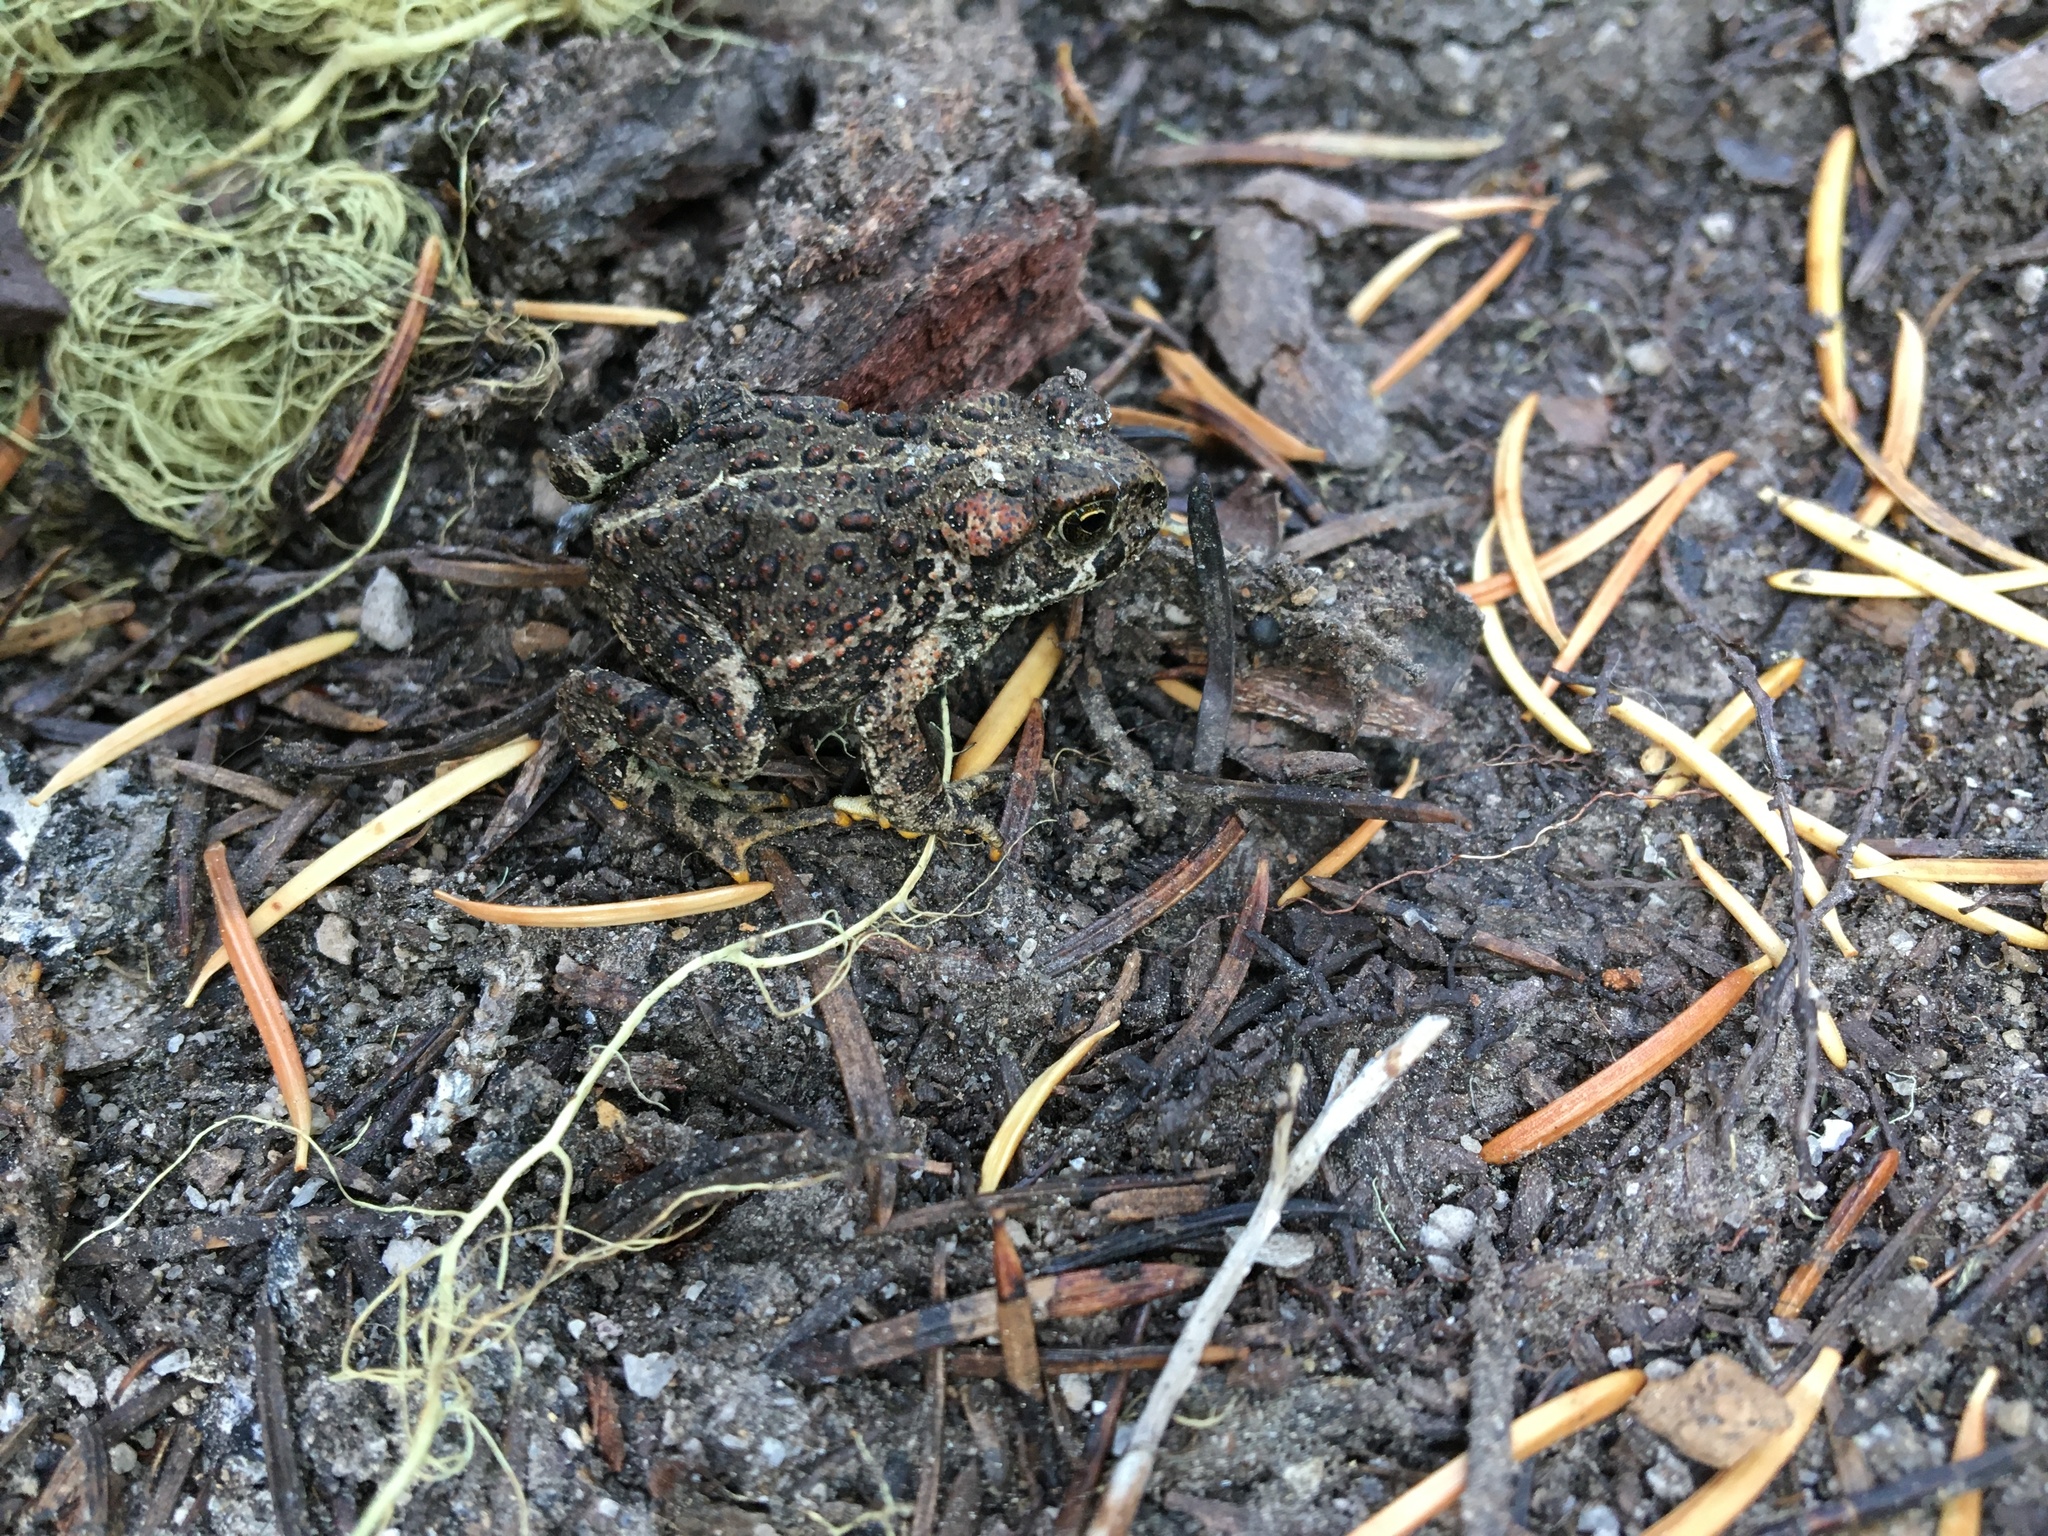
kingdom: Animalia
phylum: Chordata
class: Amphibia
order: Anura
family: Bufonidae
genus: Anaxyrus
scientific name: Anaxyrus boreas
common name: Western toad
